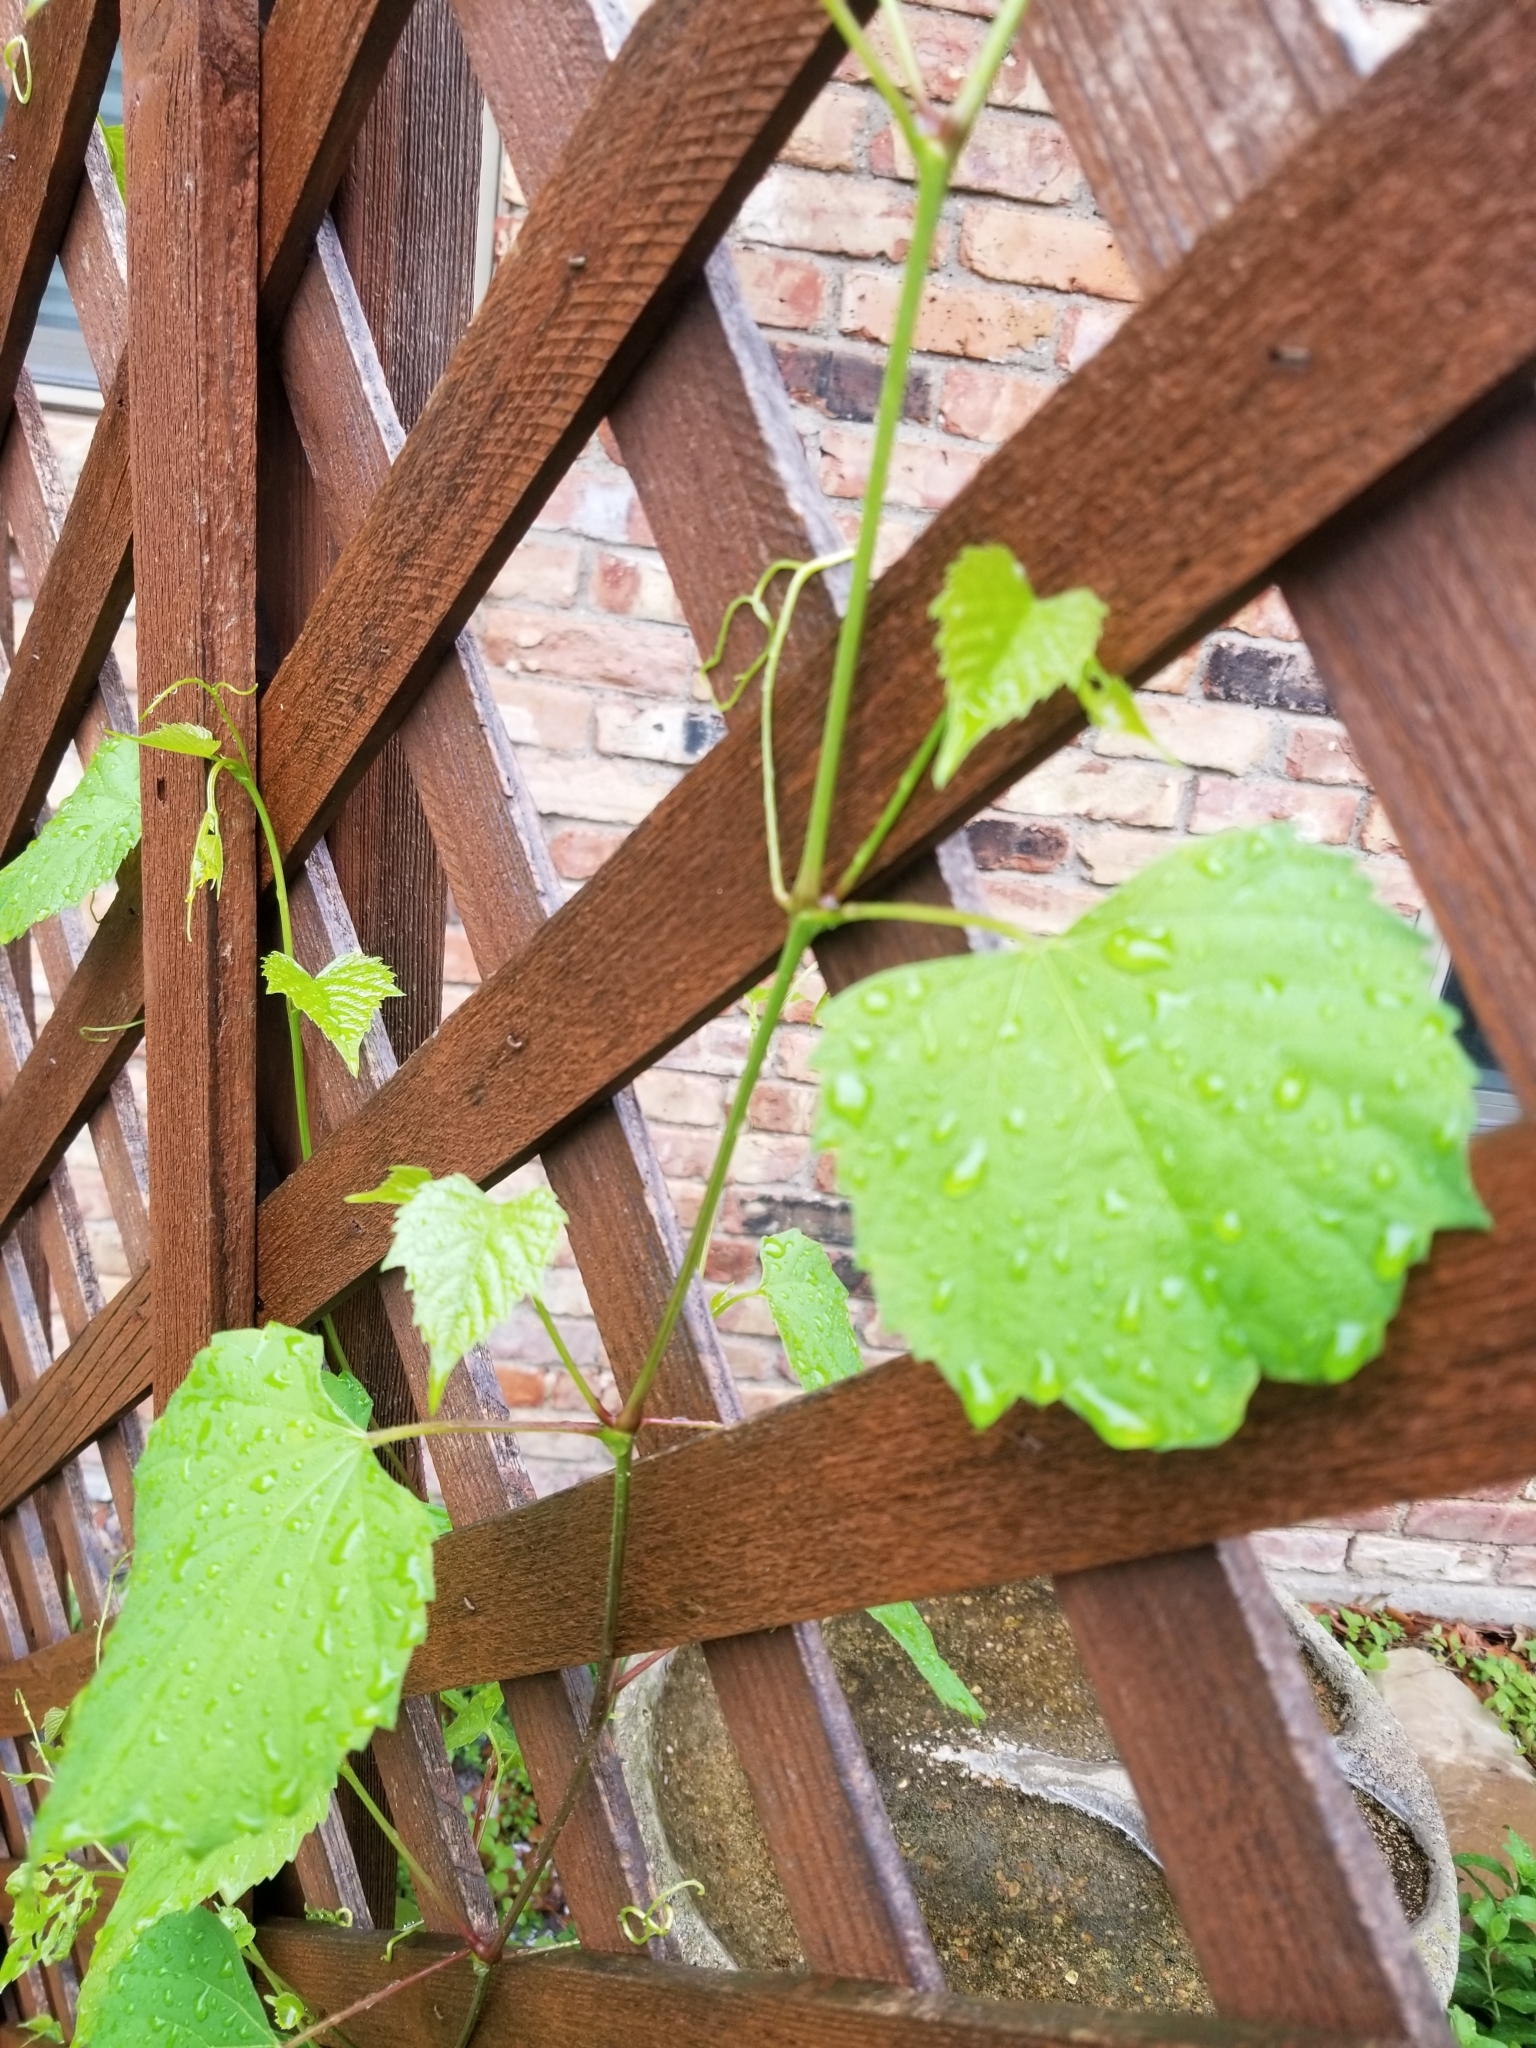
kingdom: Plantae
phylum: Tracheophyta
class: Magnoliopsida
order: Vitales
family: Vitaceae
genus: Ampelopsis
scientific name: Ampelopsis cordata
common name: Heart-leaf ampelopsis
